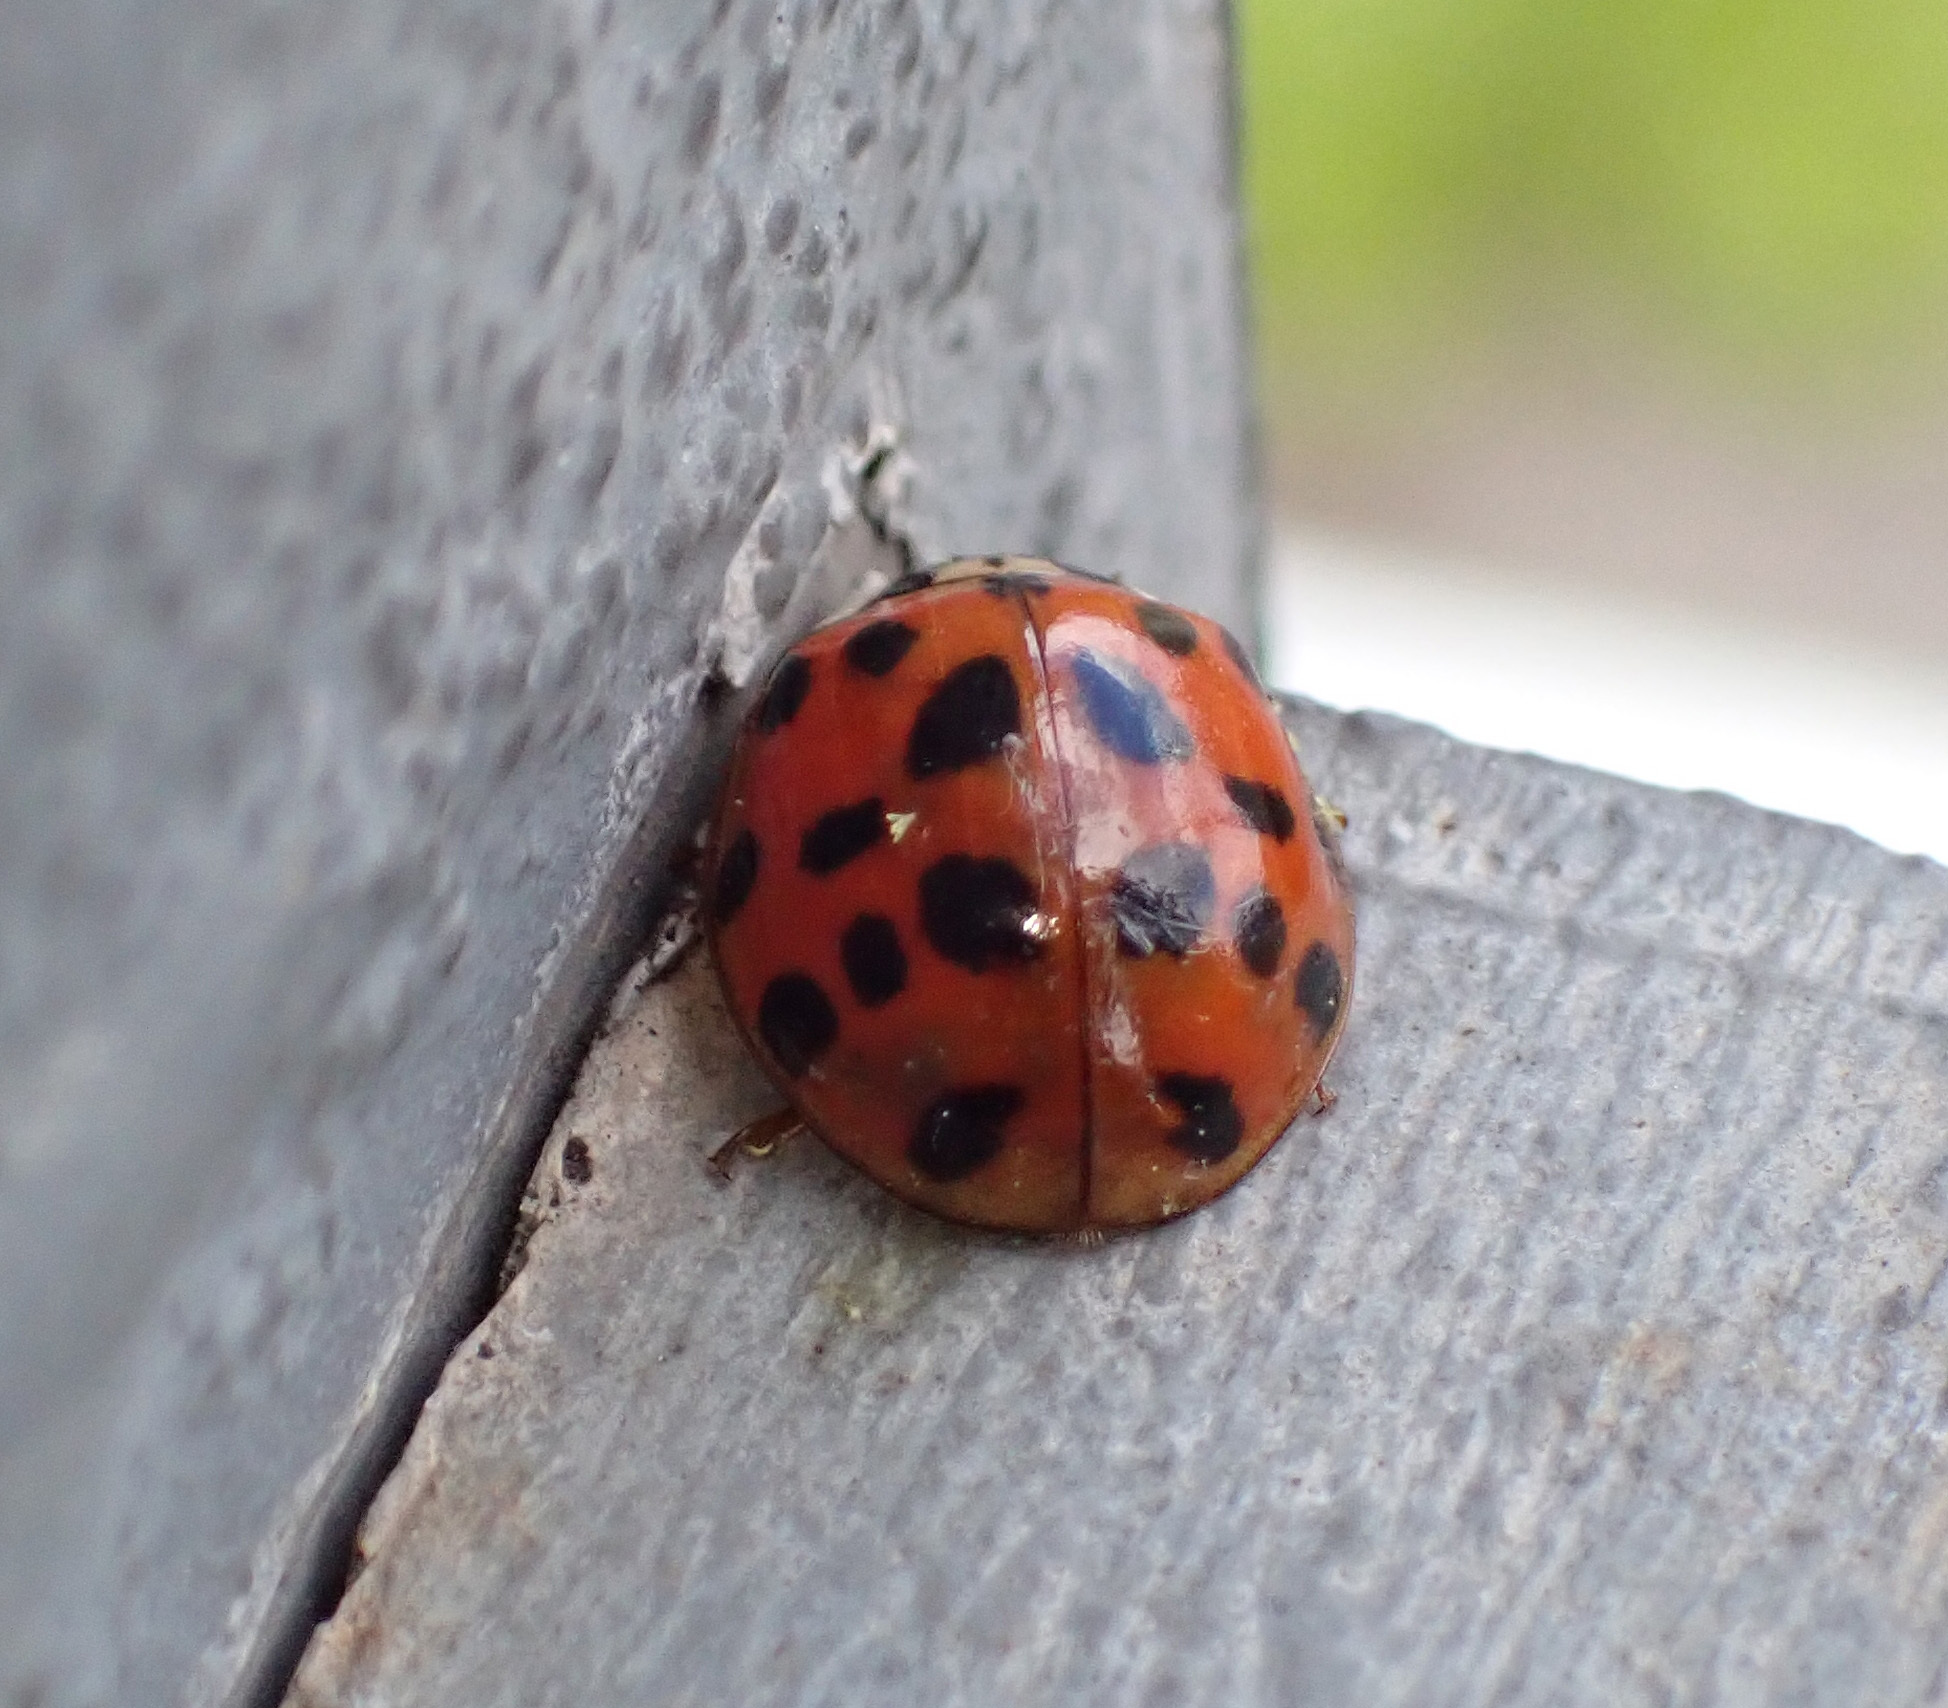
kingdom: Animalia
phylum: Arthropoda
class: Insecta
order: Coleoptera
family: Coccinellidae
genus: Harmonia
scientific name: Harmonia axyridis
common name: Harlequin ladybird
